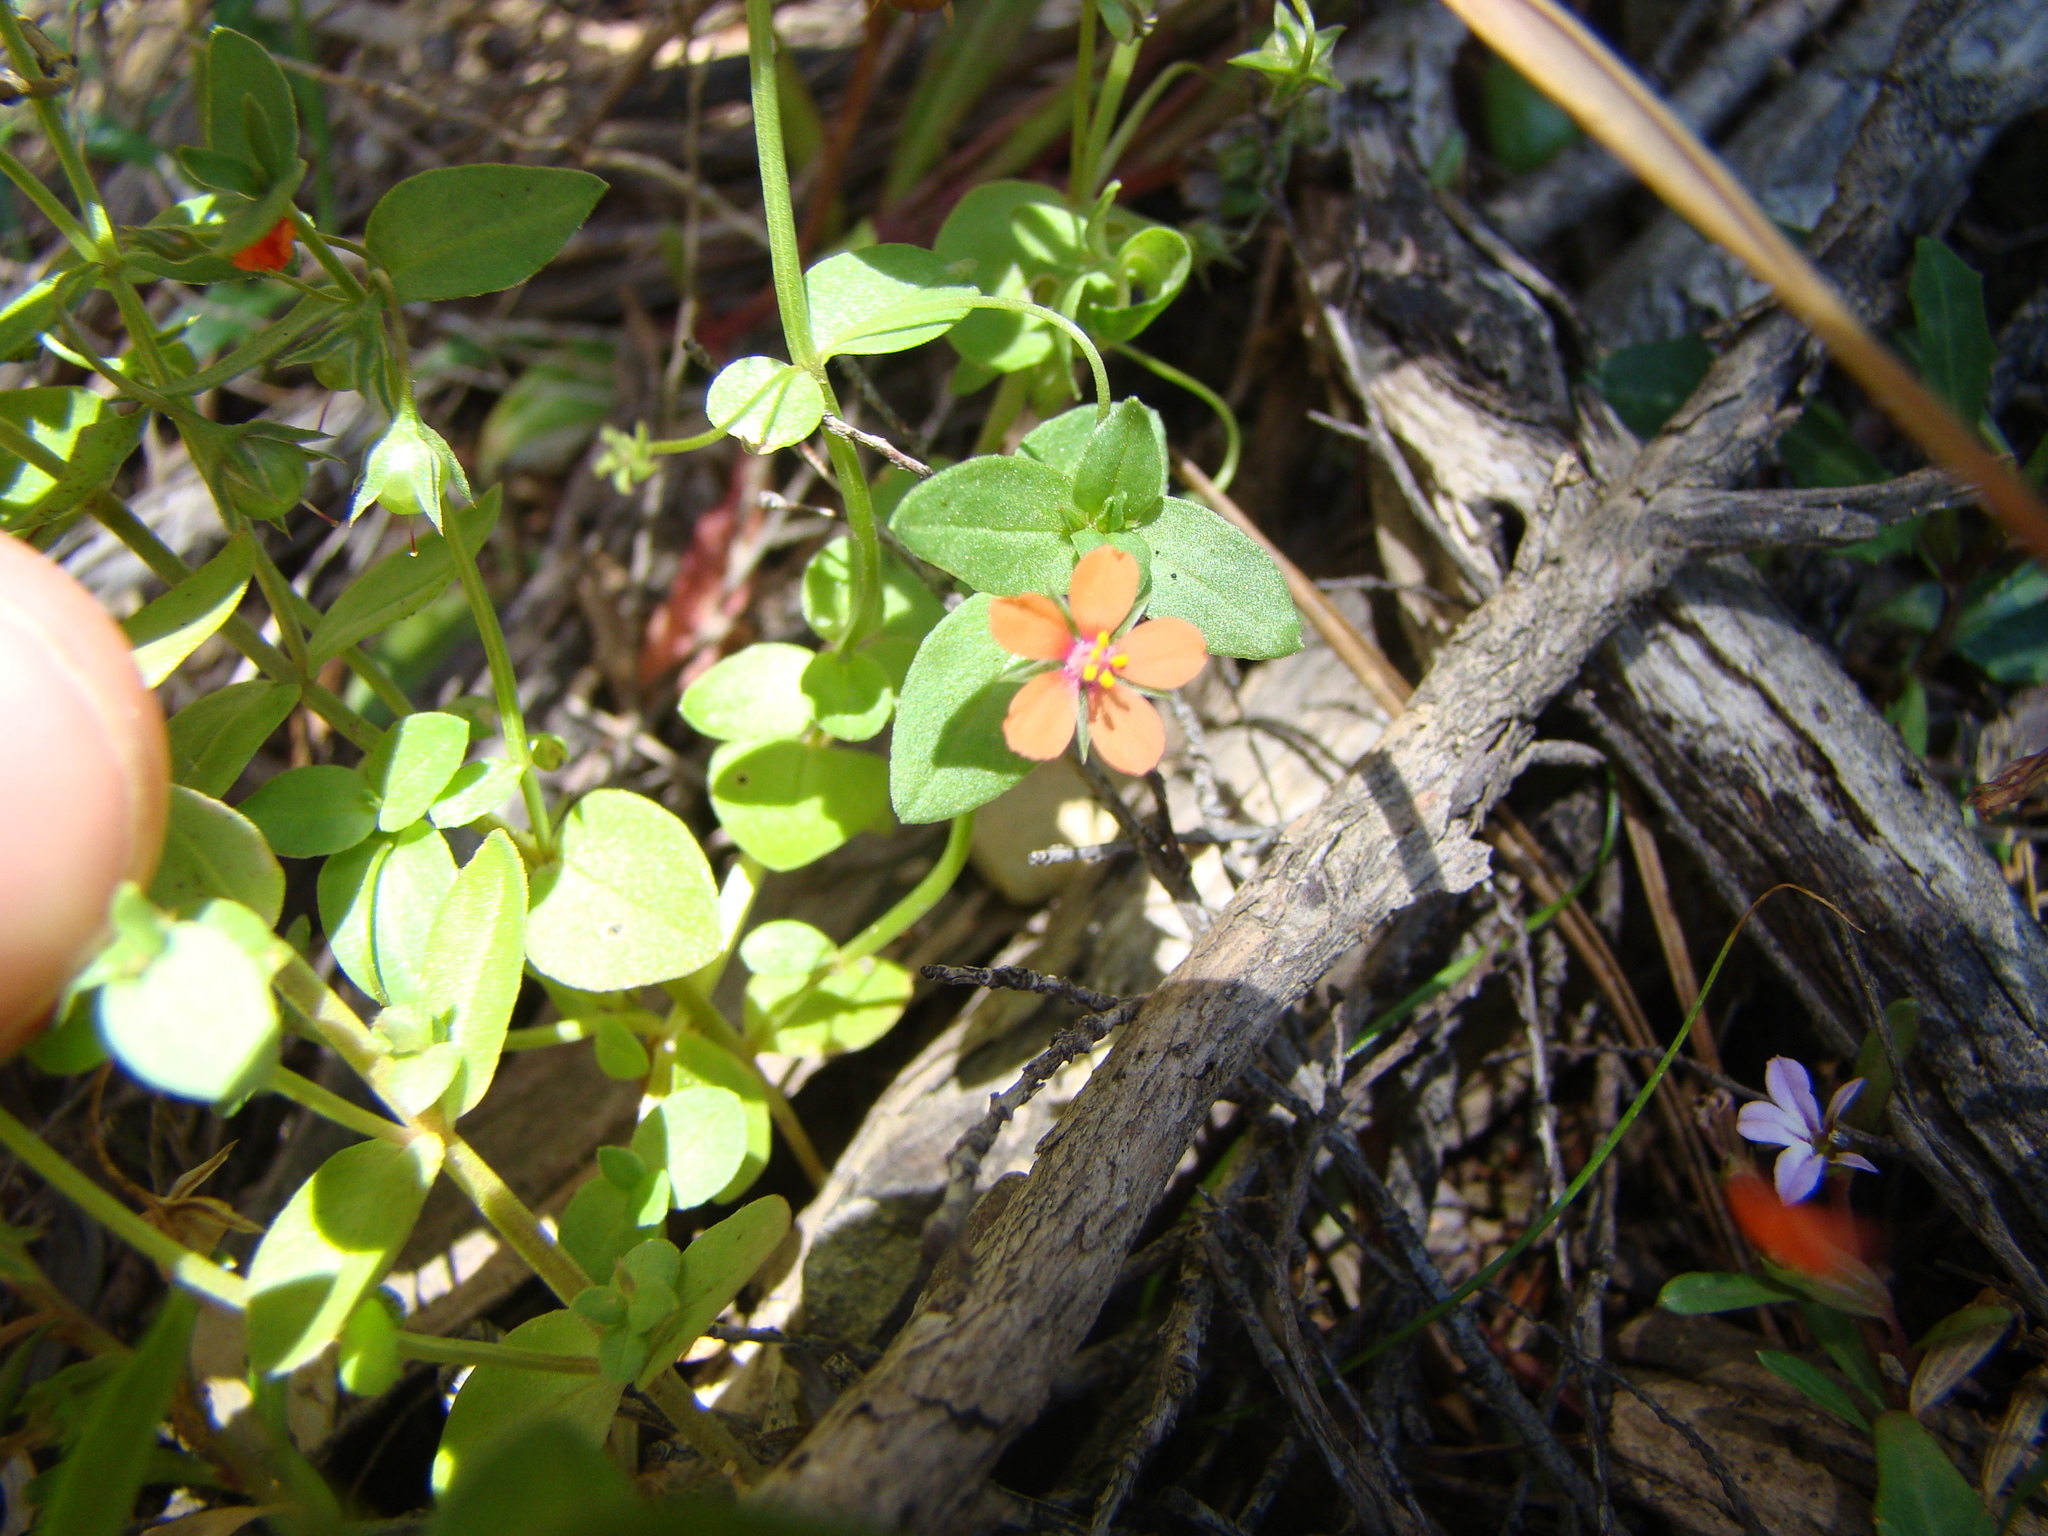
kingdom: Plantae
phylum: Tracheophyta
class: Magnoliopsida
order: Ericales
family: Primulaceae
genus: Lysimachia
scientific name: Lysimachia arvensis
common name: Scarlet pimpernel
